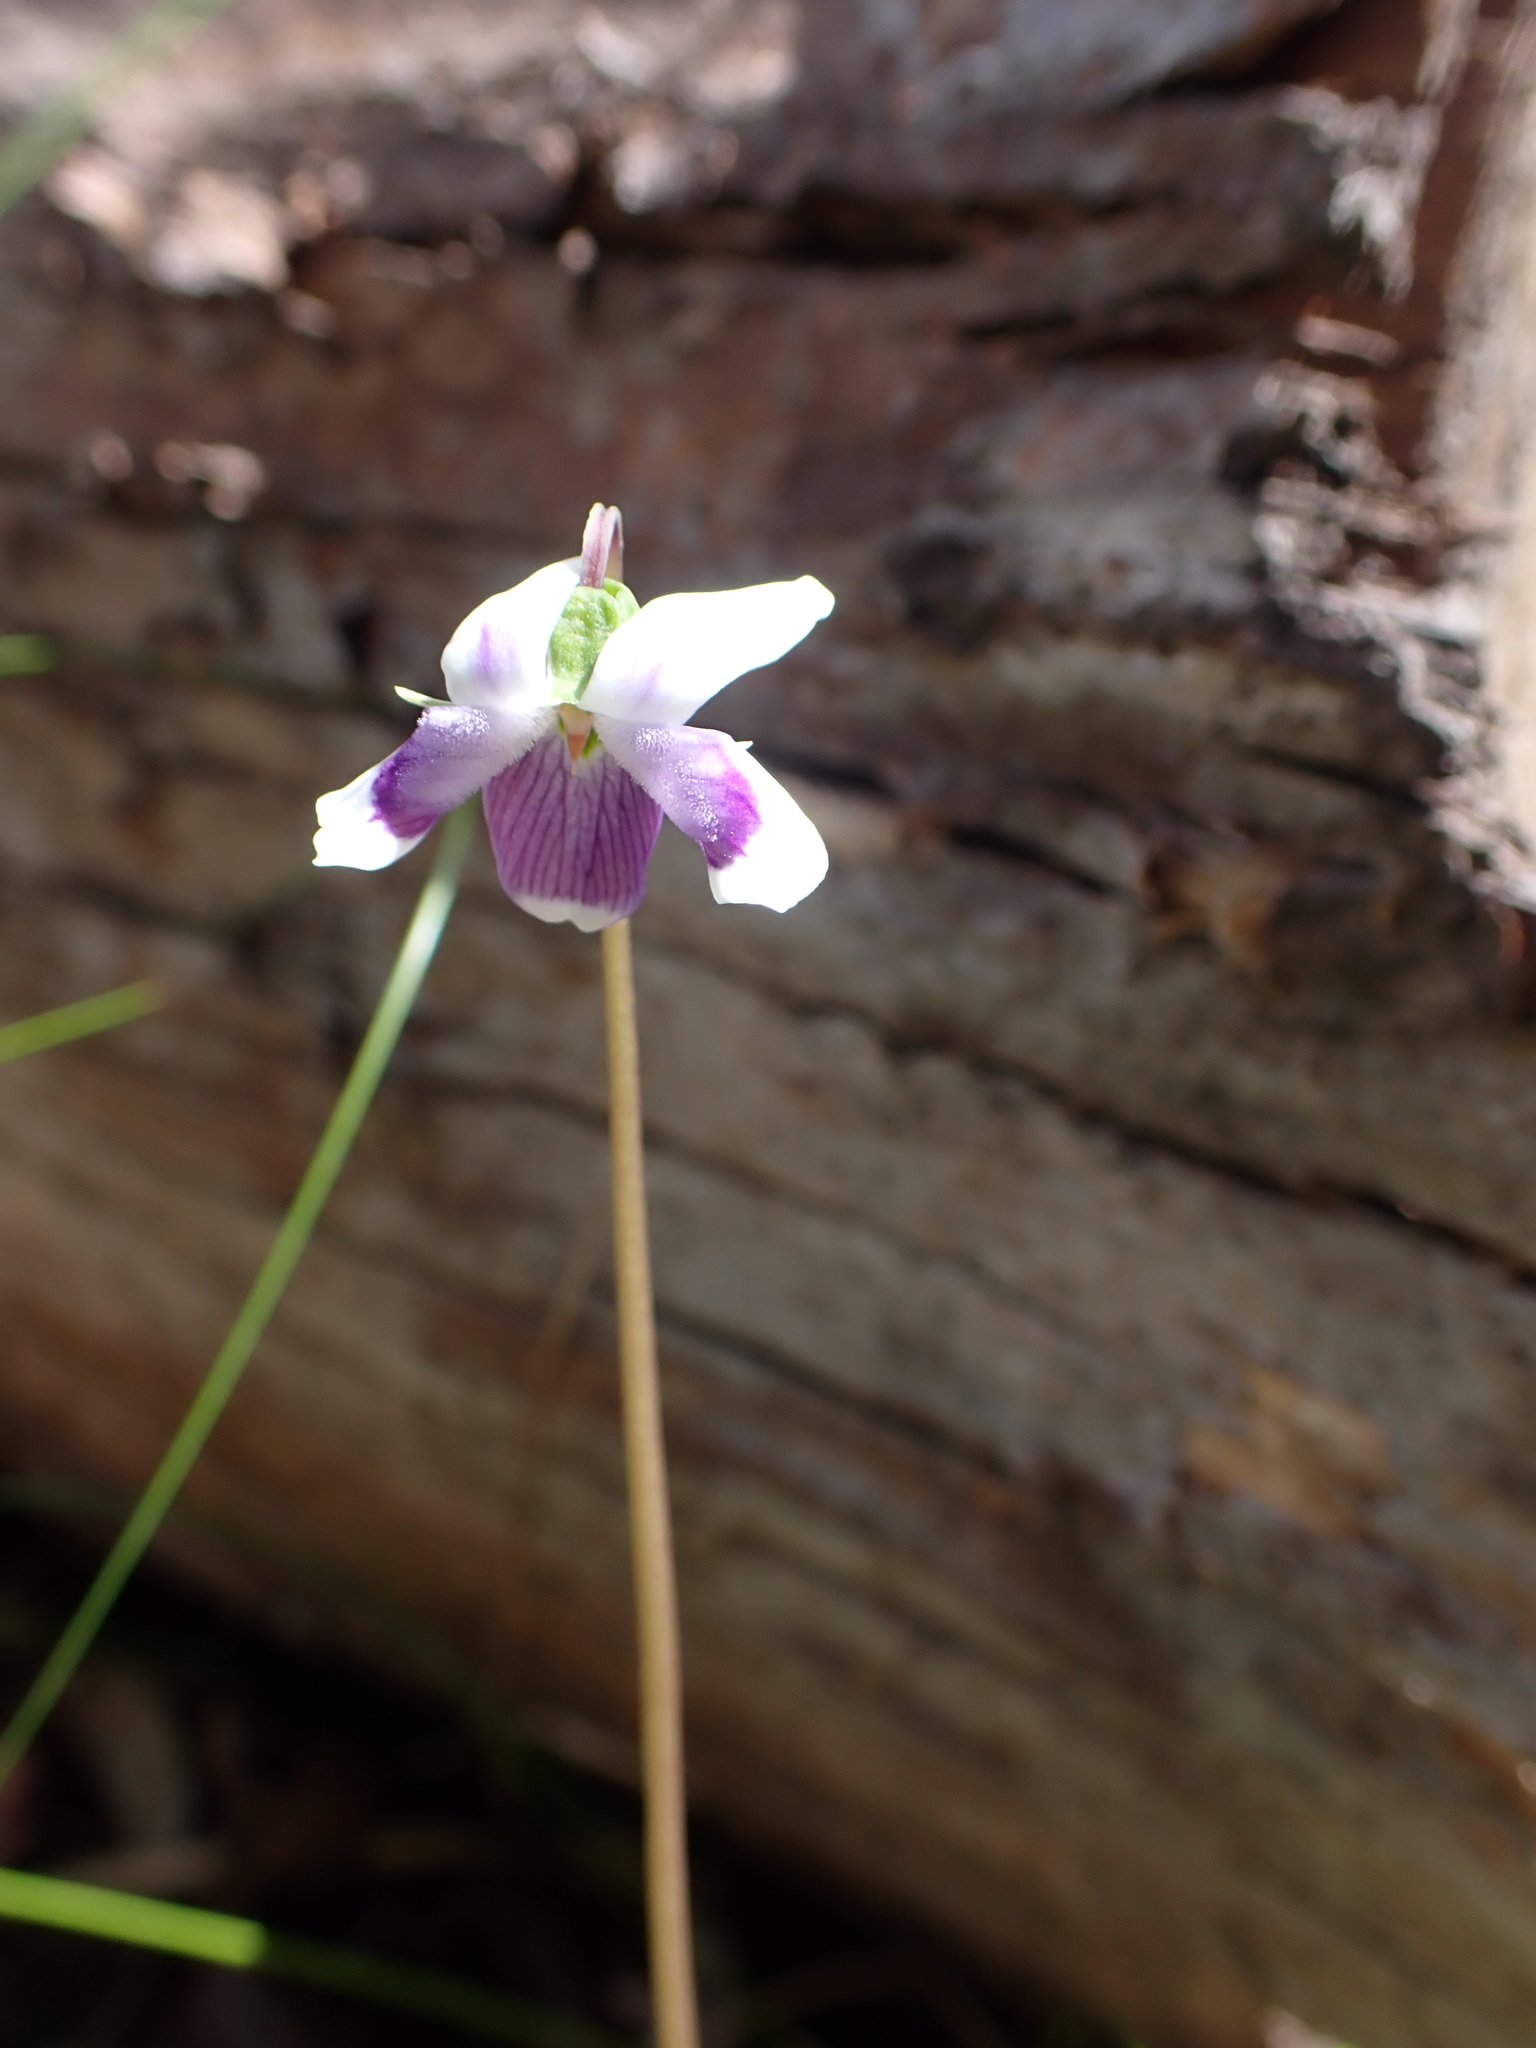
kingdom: Plantae
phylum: Tracheophyta
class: Magnoliopsida
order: Malpighiales
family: Violaceae
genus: Viola
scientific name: Viola eminens
